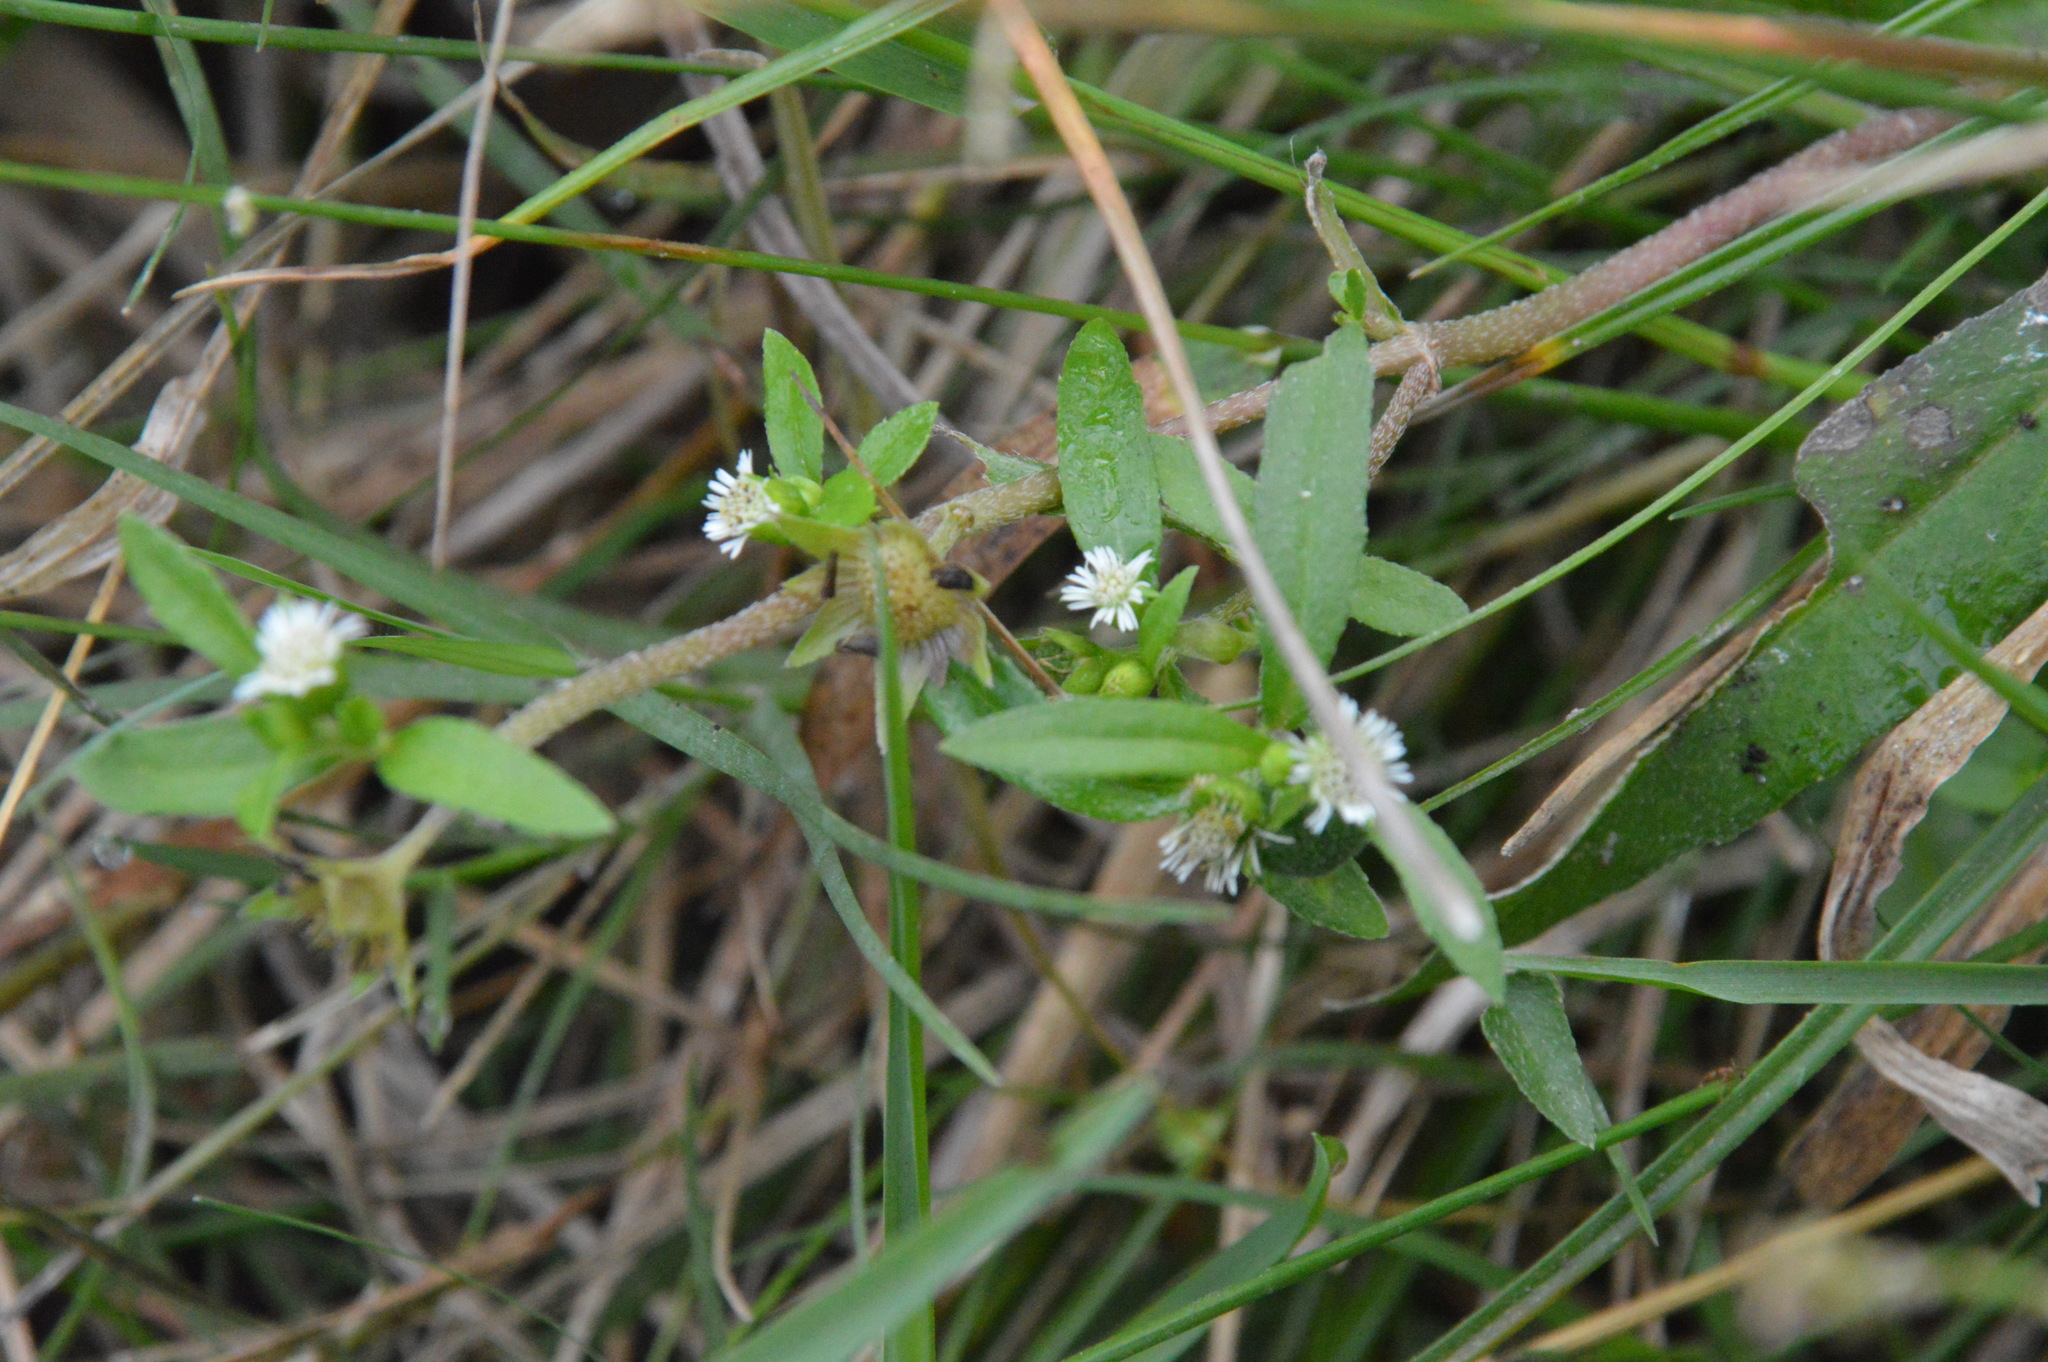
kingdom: Plantae
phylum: Tracheophyta
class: Magnoliopsida
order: Asterales
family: Asteraceae
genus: Eclipta
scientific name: Eclipta prostrata
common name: False daisy
